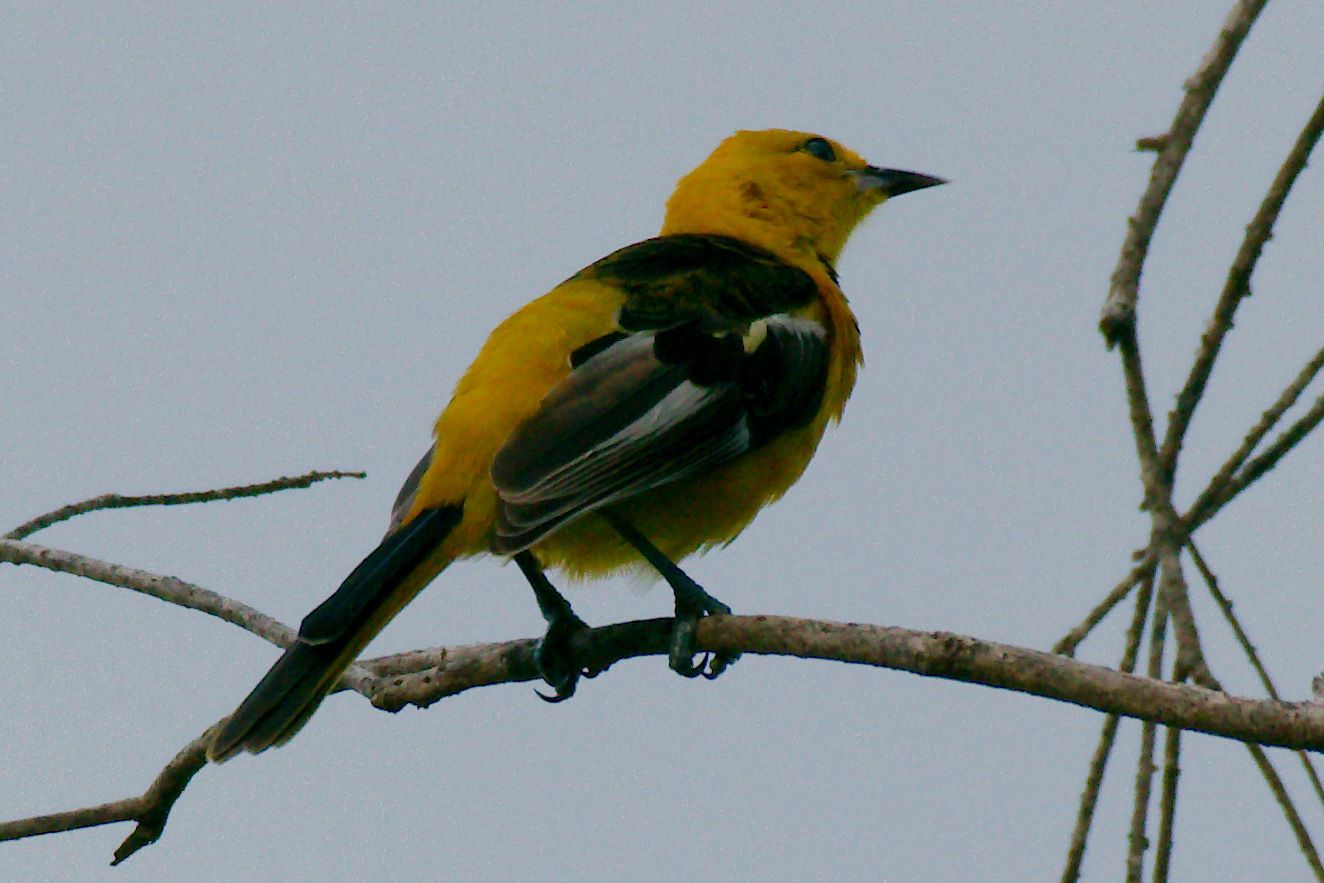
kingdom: Animalia
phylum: Chordata
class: Aves
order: Passeriformes
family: Icteridae
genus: Icterus
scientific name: Icterus pectoralis
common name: Spot-breasted oriole
